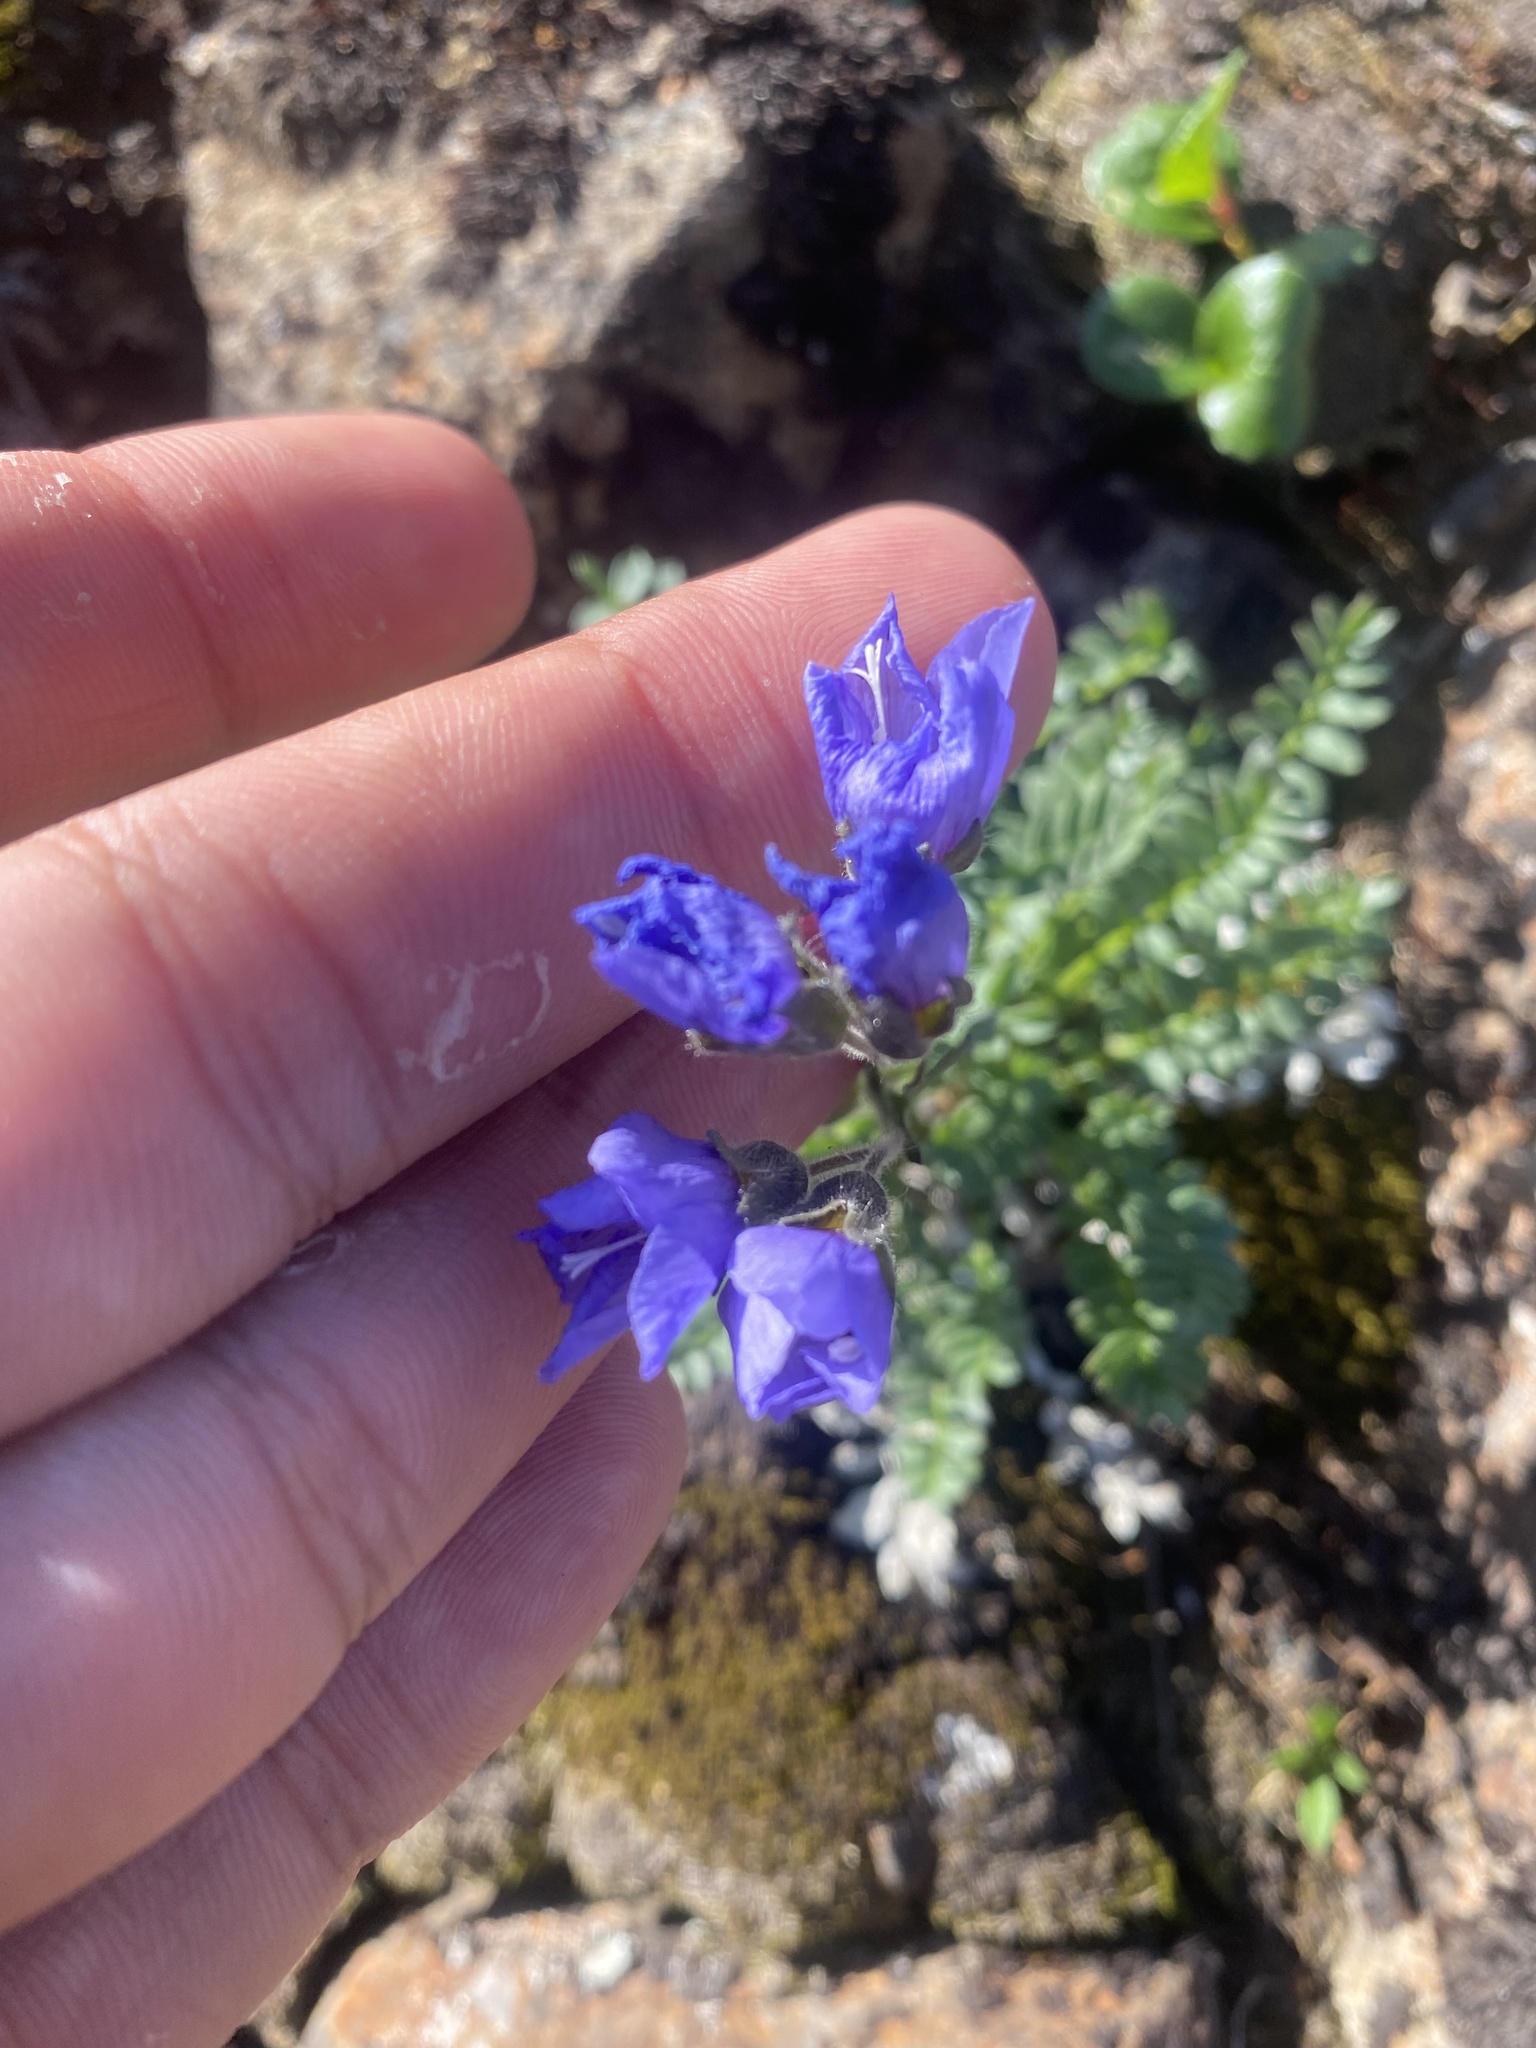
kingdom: Plantae
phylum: Tracheophyta
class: Magnoliopsida
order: Ericales
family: Polemoniaceae
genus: Polemonium
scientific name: Polemonium boreale
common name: Boreal jacob's-ladder
